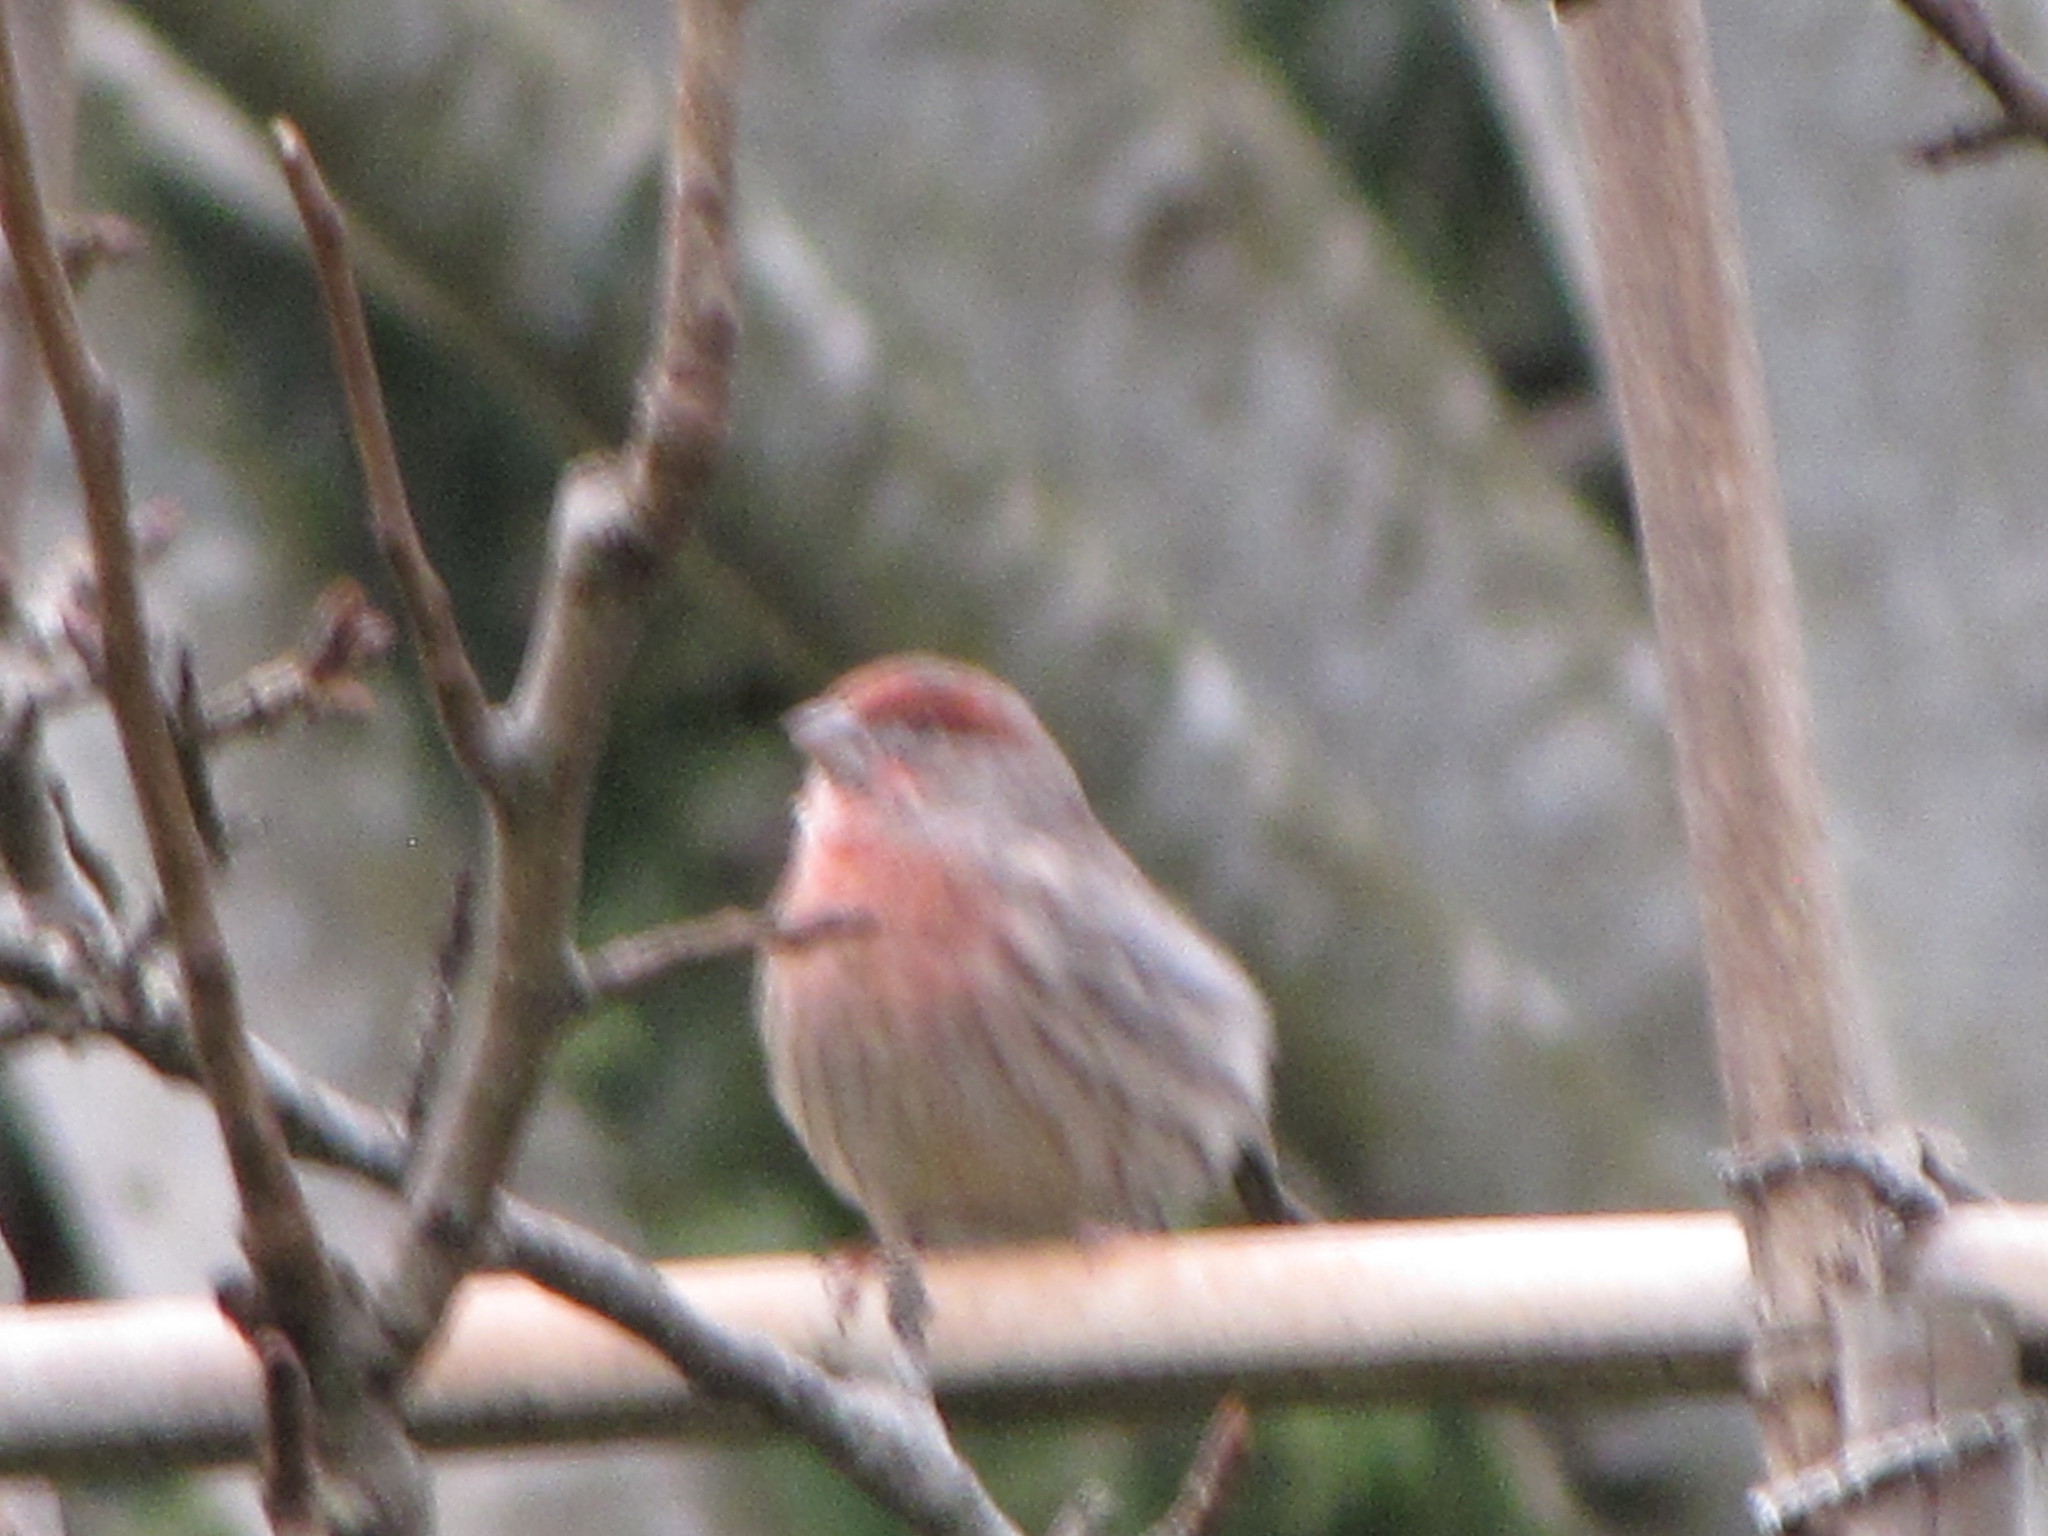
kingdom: Animalia
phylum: Chordata
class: Aves
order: Passeriformes
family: Fringillidae
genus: Haemorhous
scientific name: Haemorhous mexicanus
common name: House finch
